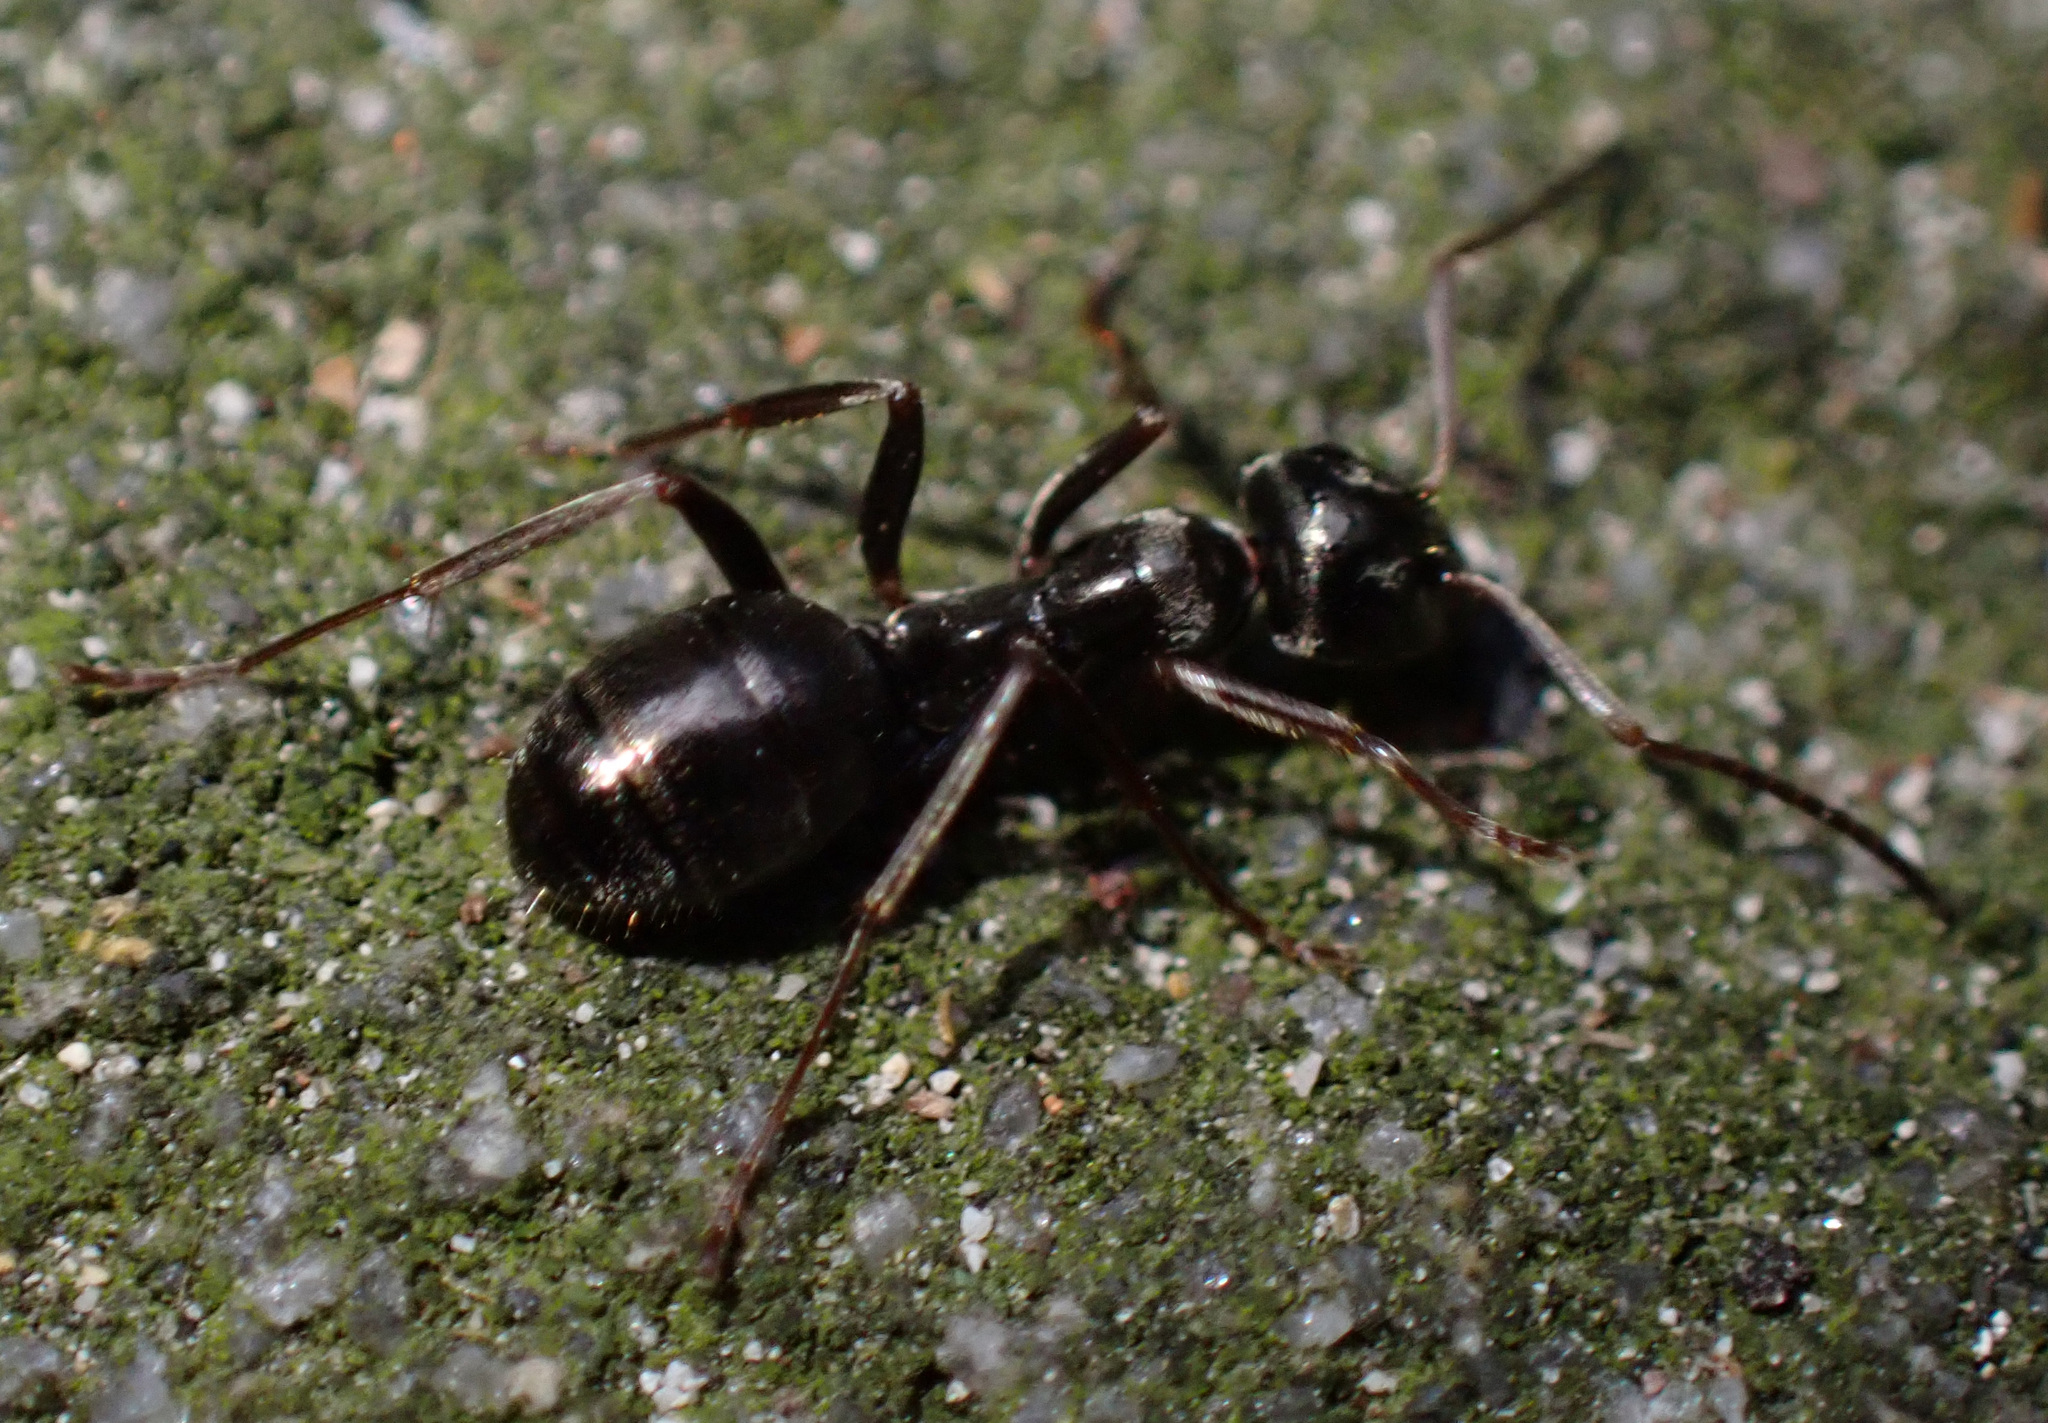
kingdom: Animalia
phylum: Arthropoda
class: Insecta
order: Hymenoptera
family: Formicidae
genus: Formica
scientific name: Formica fusca
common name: Silky ant
